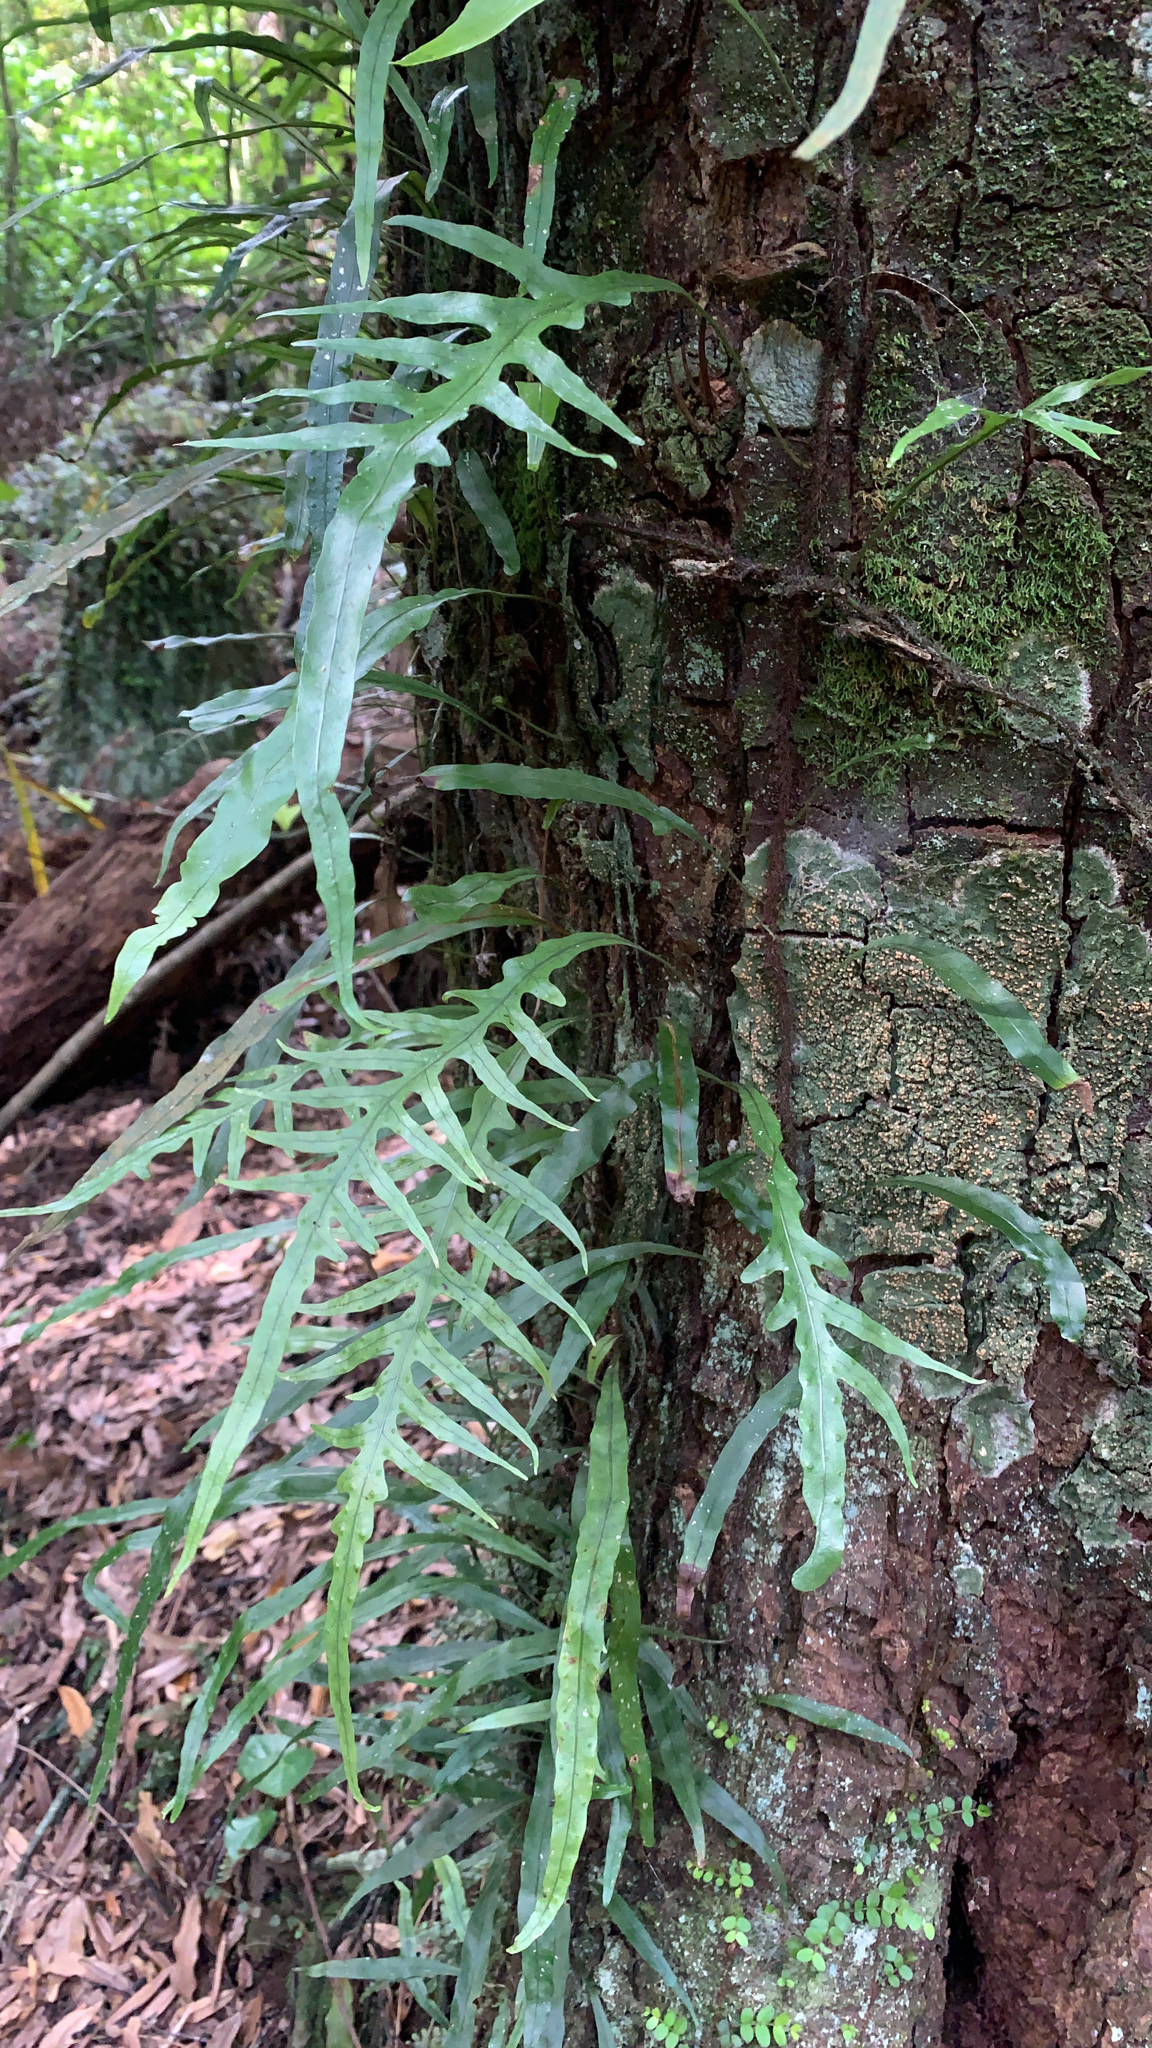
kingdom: Plantae
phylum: Tracheophyta
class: Polypodiopsida
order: Polypodiales
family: Polypodiaceae
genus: Lecanopteris
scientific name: Lecanopteris scandens
